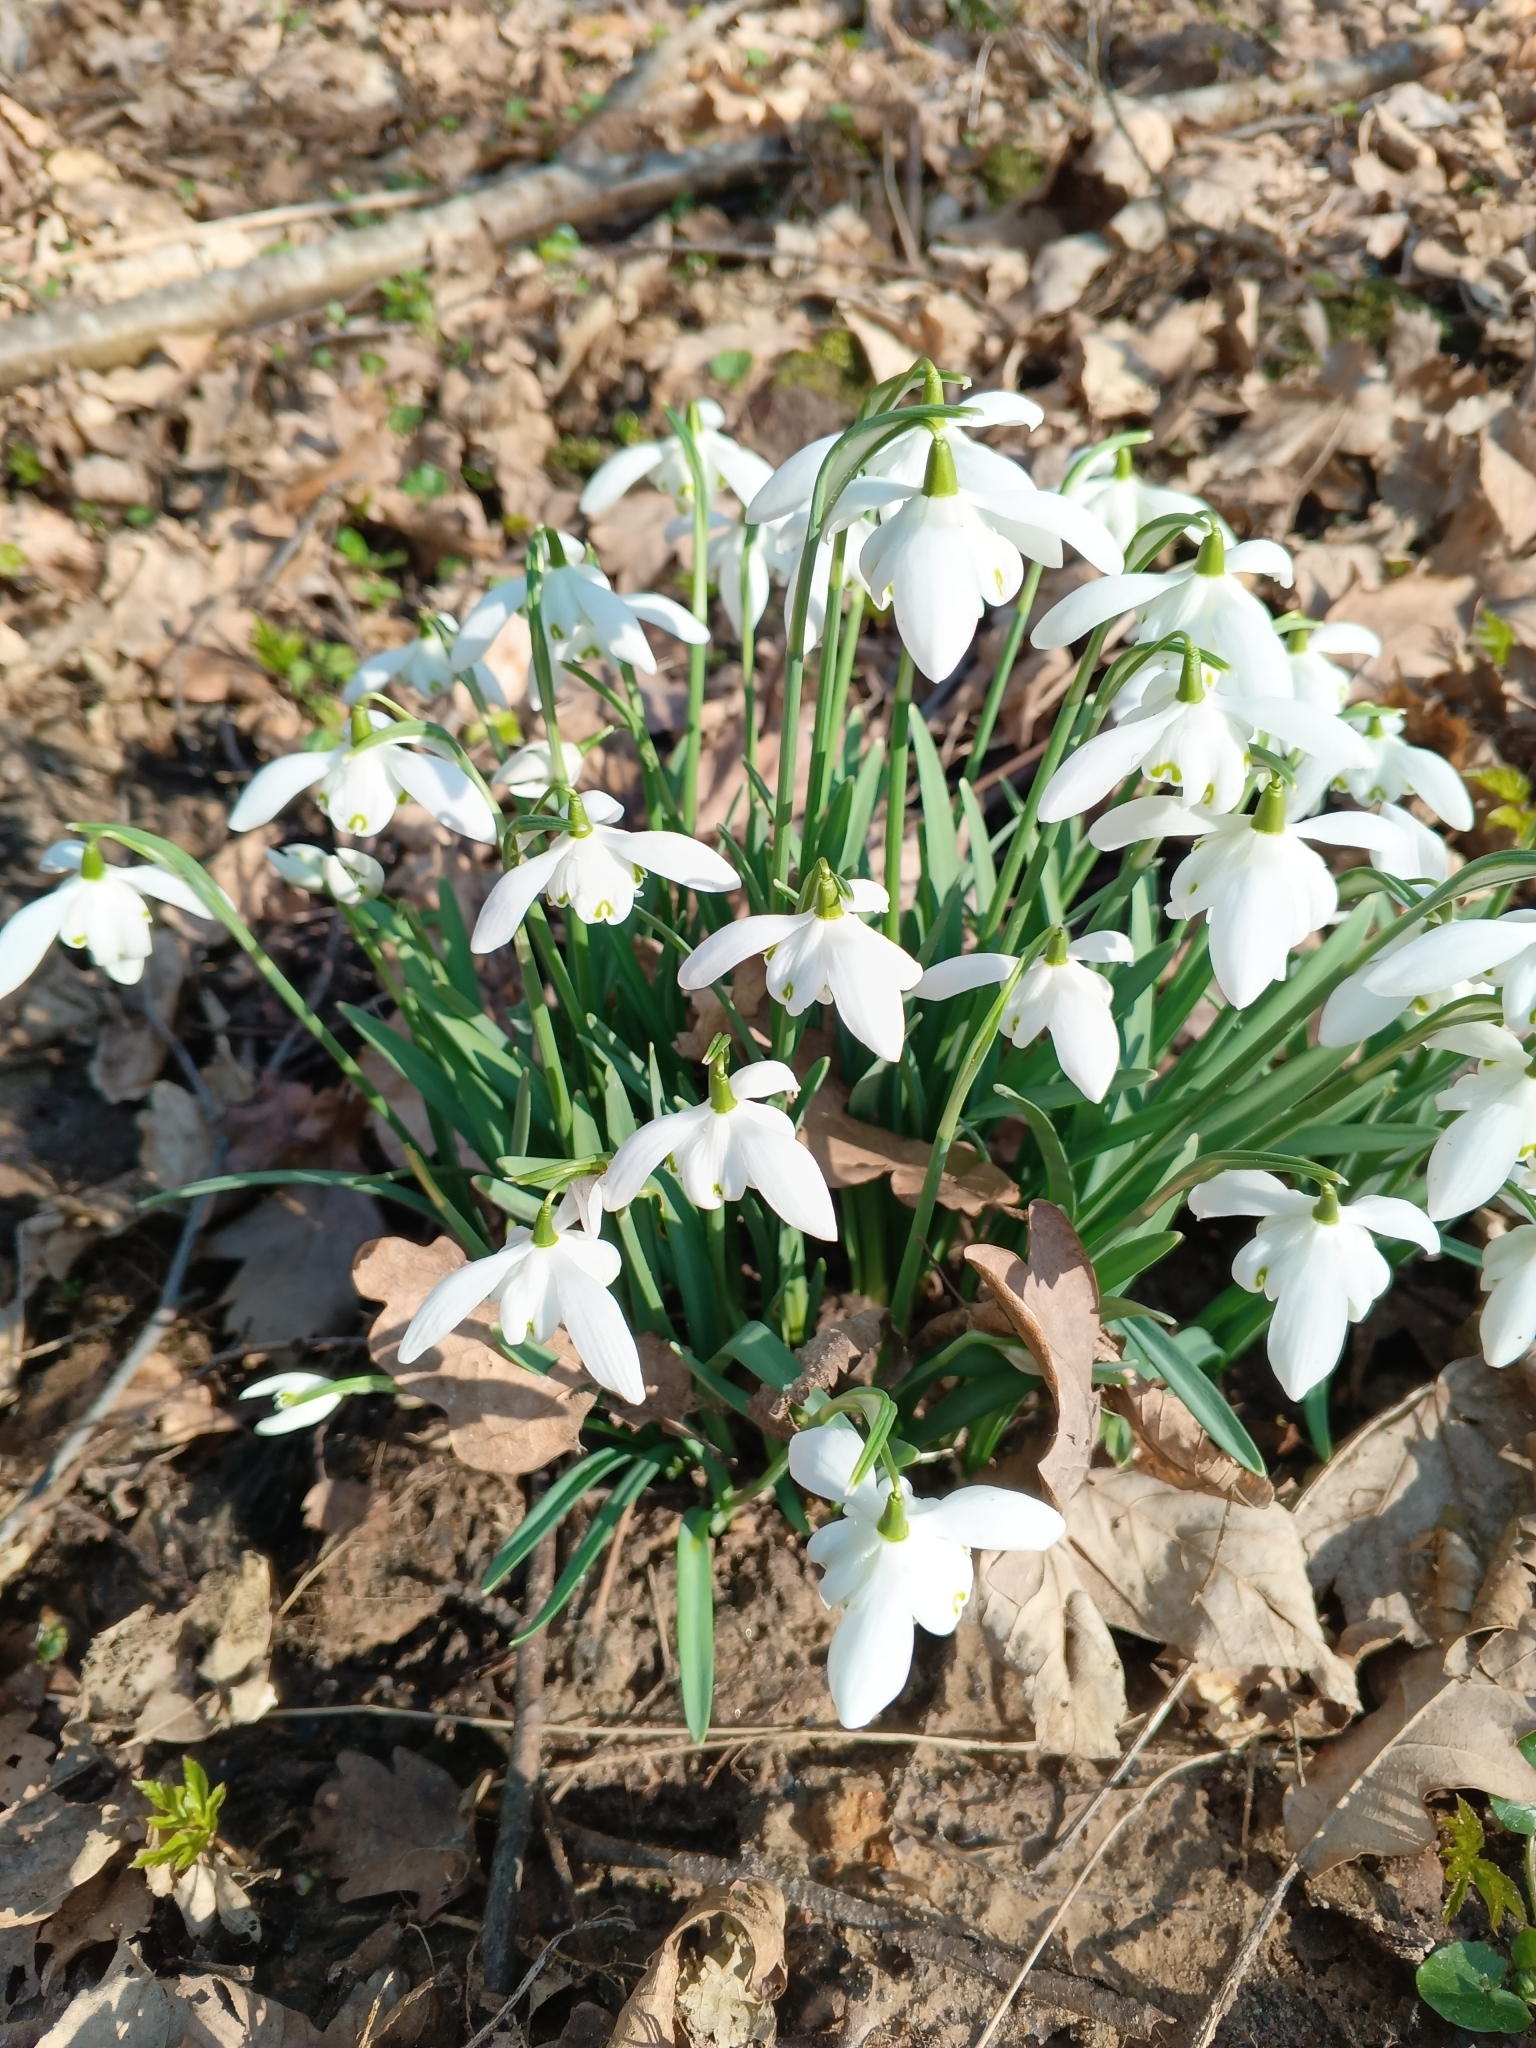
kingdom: Plantae
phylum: Tracheophyta
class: Liliopsida
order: Asparagales
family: Amaryllidaceae
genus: Galanthus
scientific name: Galanthus nivalis
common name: Snowdrop
